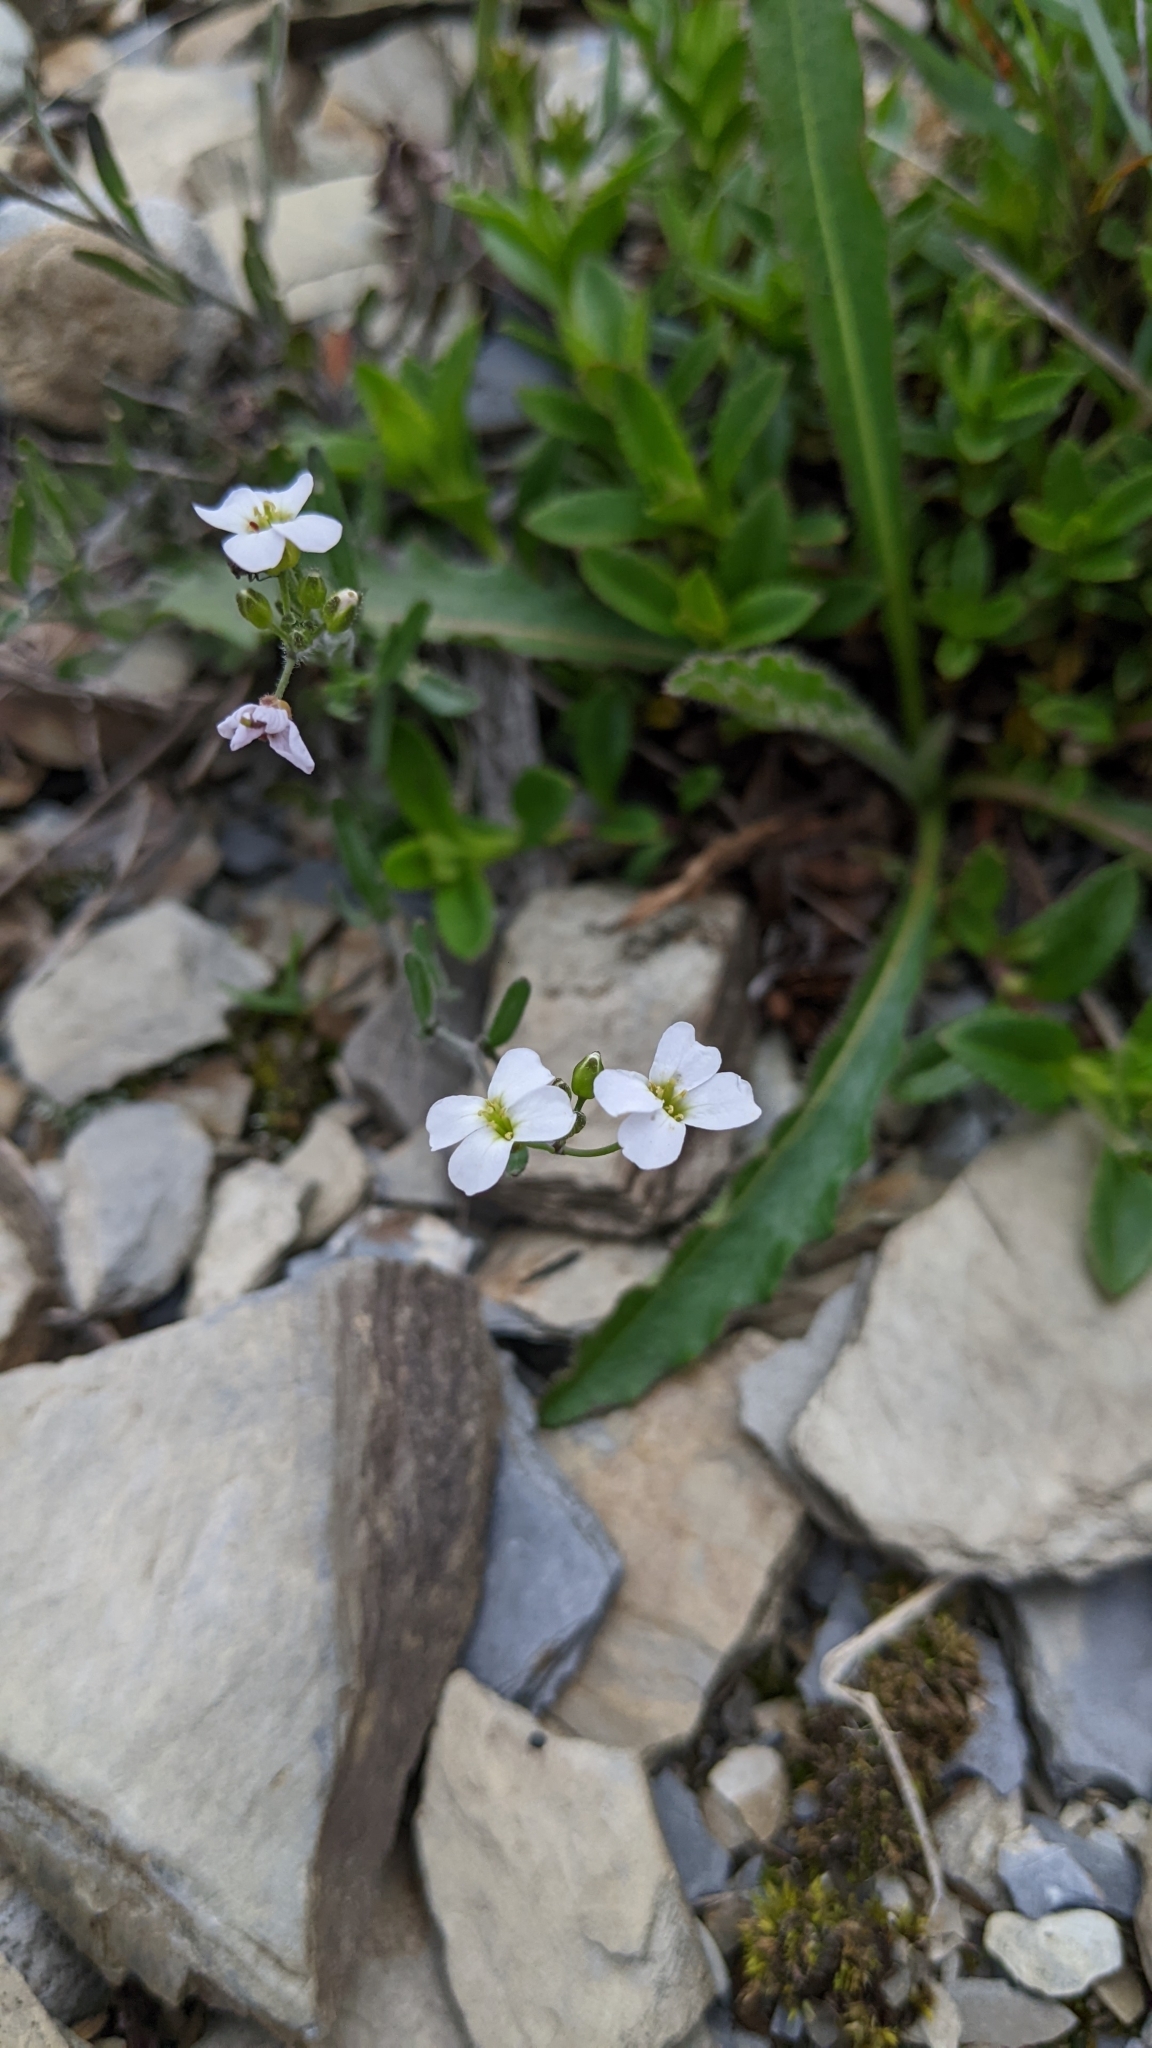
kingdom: Plantae
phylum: Tracheophyta
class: Magnoliopsida
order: Brassicales
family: Brassicaceae
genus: Arabidopsis
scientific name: Arabidopsis lyrata
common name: Lyrate rockcress
